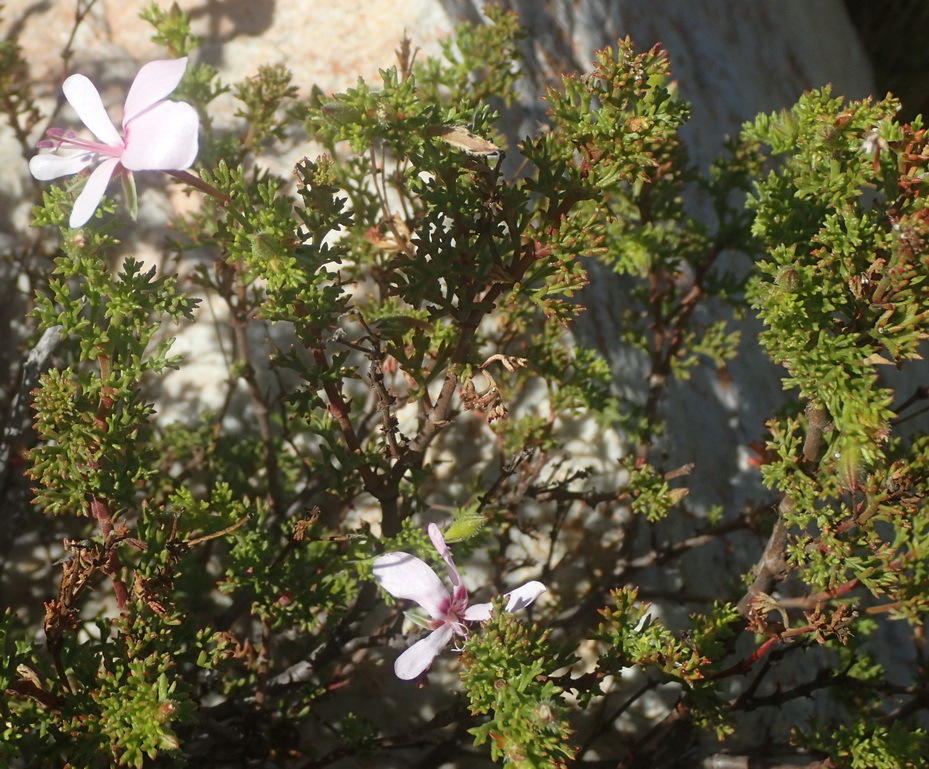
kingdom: Plantae
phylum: Tracheophyta
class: Magnoliopsida
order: Geraniales
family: Geraniaceae
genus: Pelargonium
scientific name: Pelargonium fruticosum
